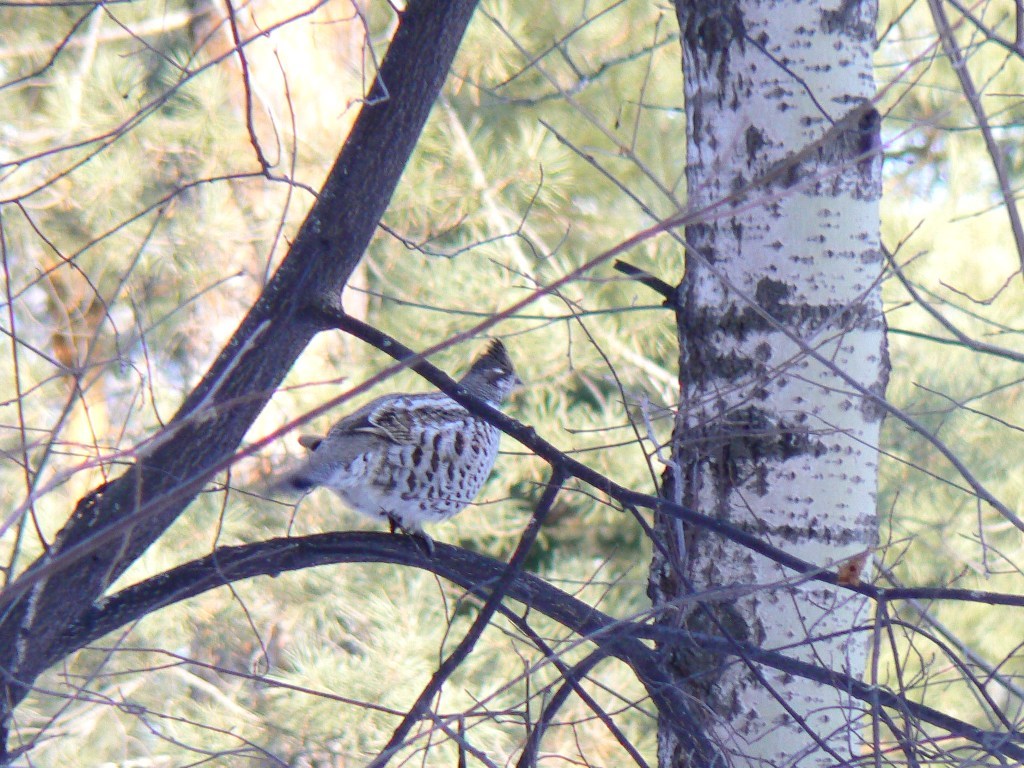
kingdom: Animalia
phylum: Chordata
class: Aves
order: Galliformes
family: Phasianidae
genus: Tetrastes
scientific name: Tetrastes bonasia
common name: Hazel grouse
